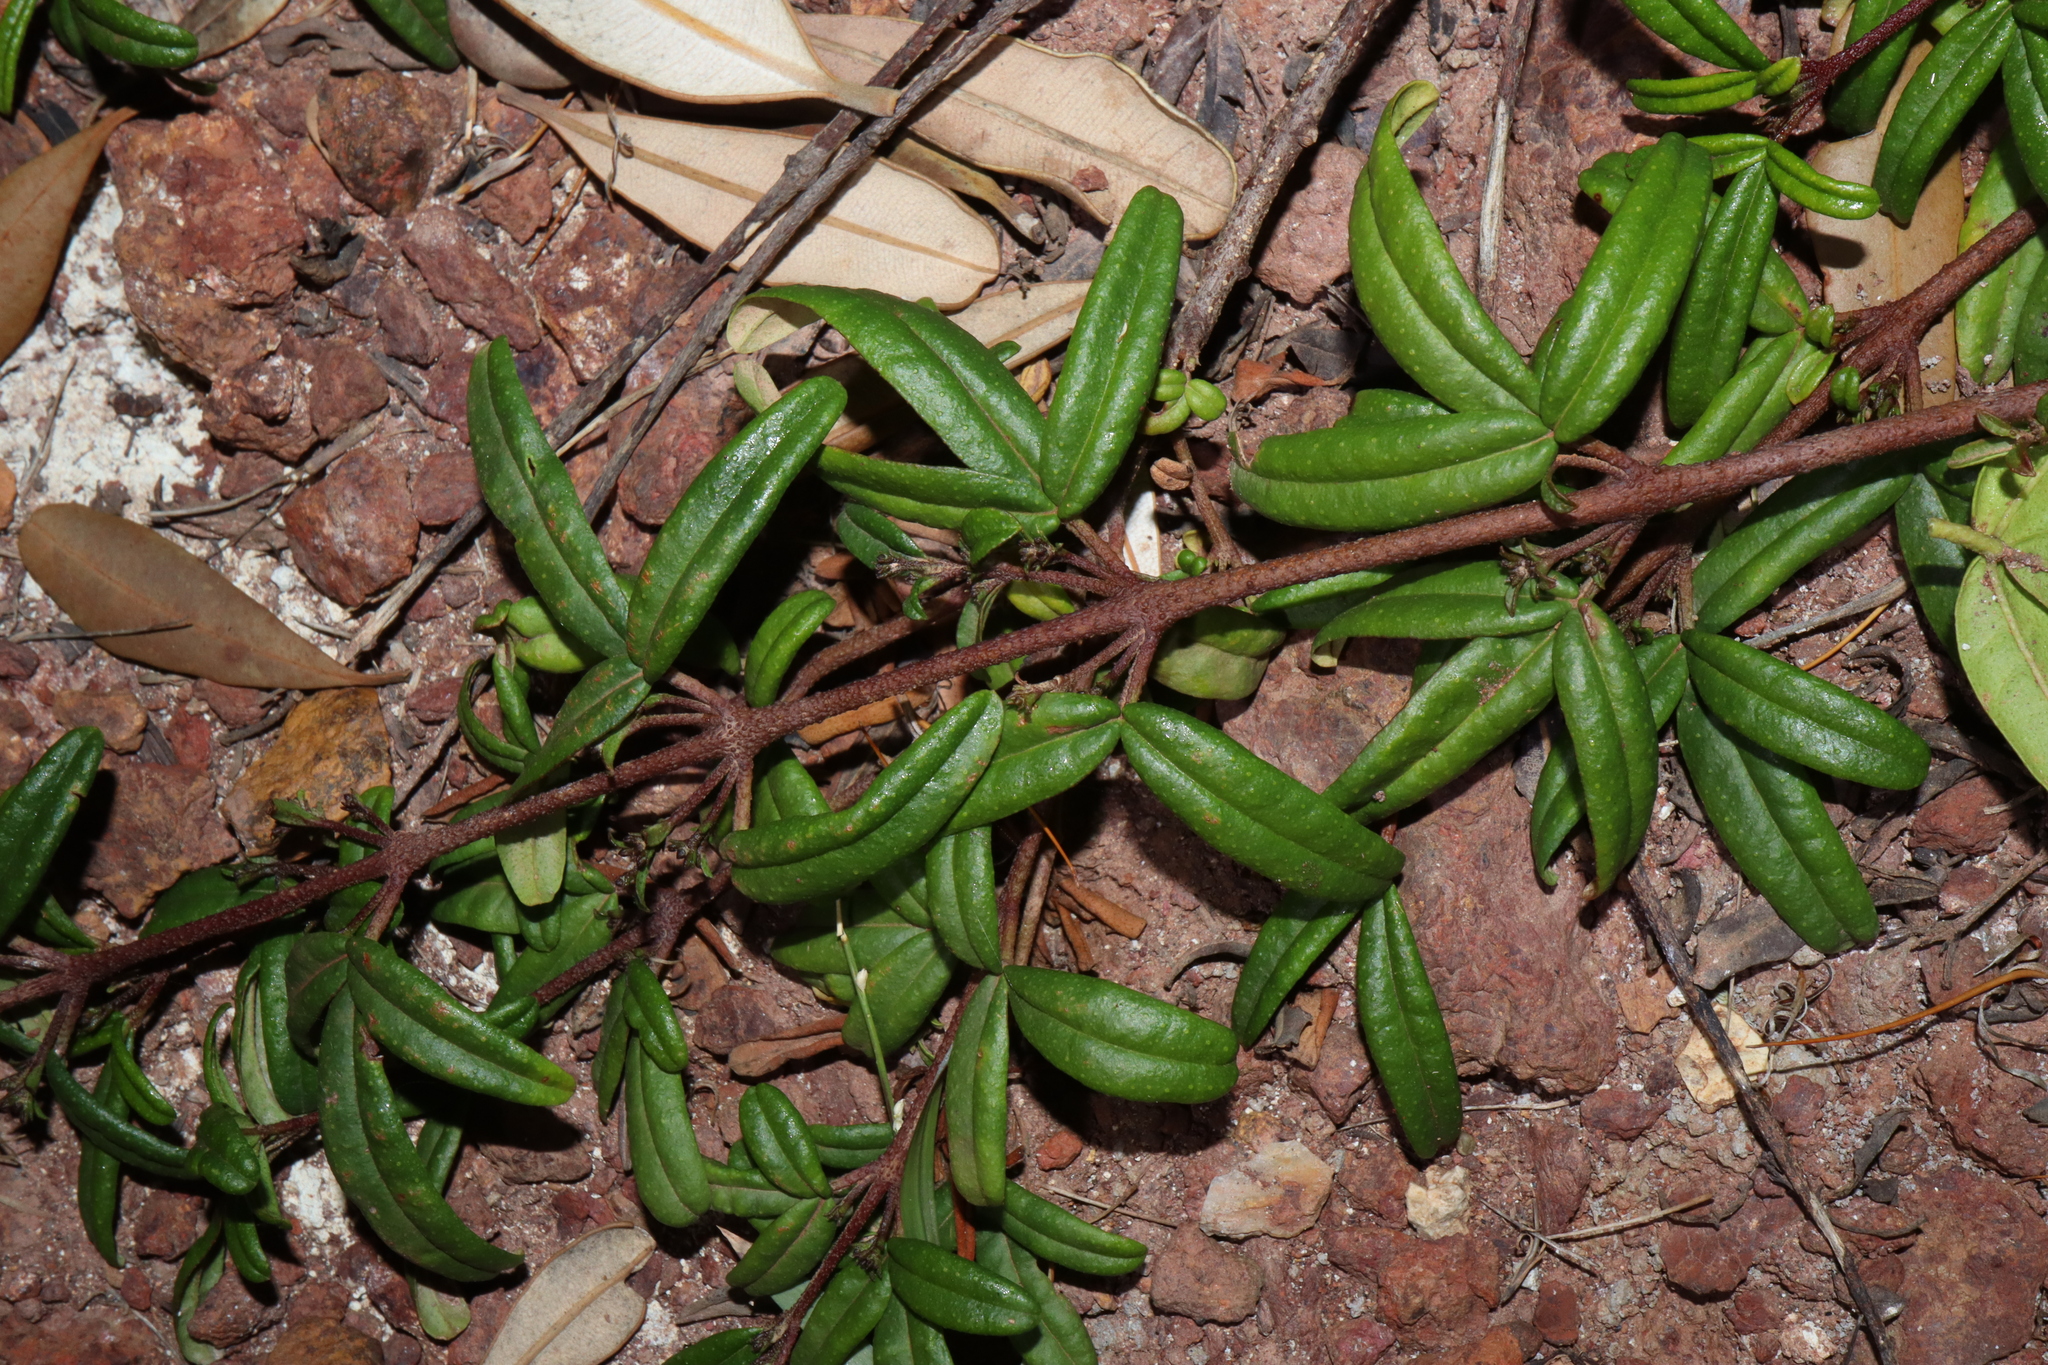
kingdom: Plantae
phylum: Tracheophyta
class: Magnoliopsida
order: Sapindales
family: Rutaceae
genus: Zieria
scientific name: Zieria smithii
